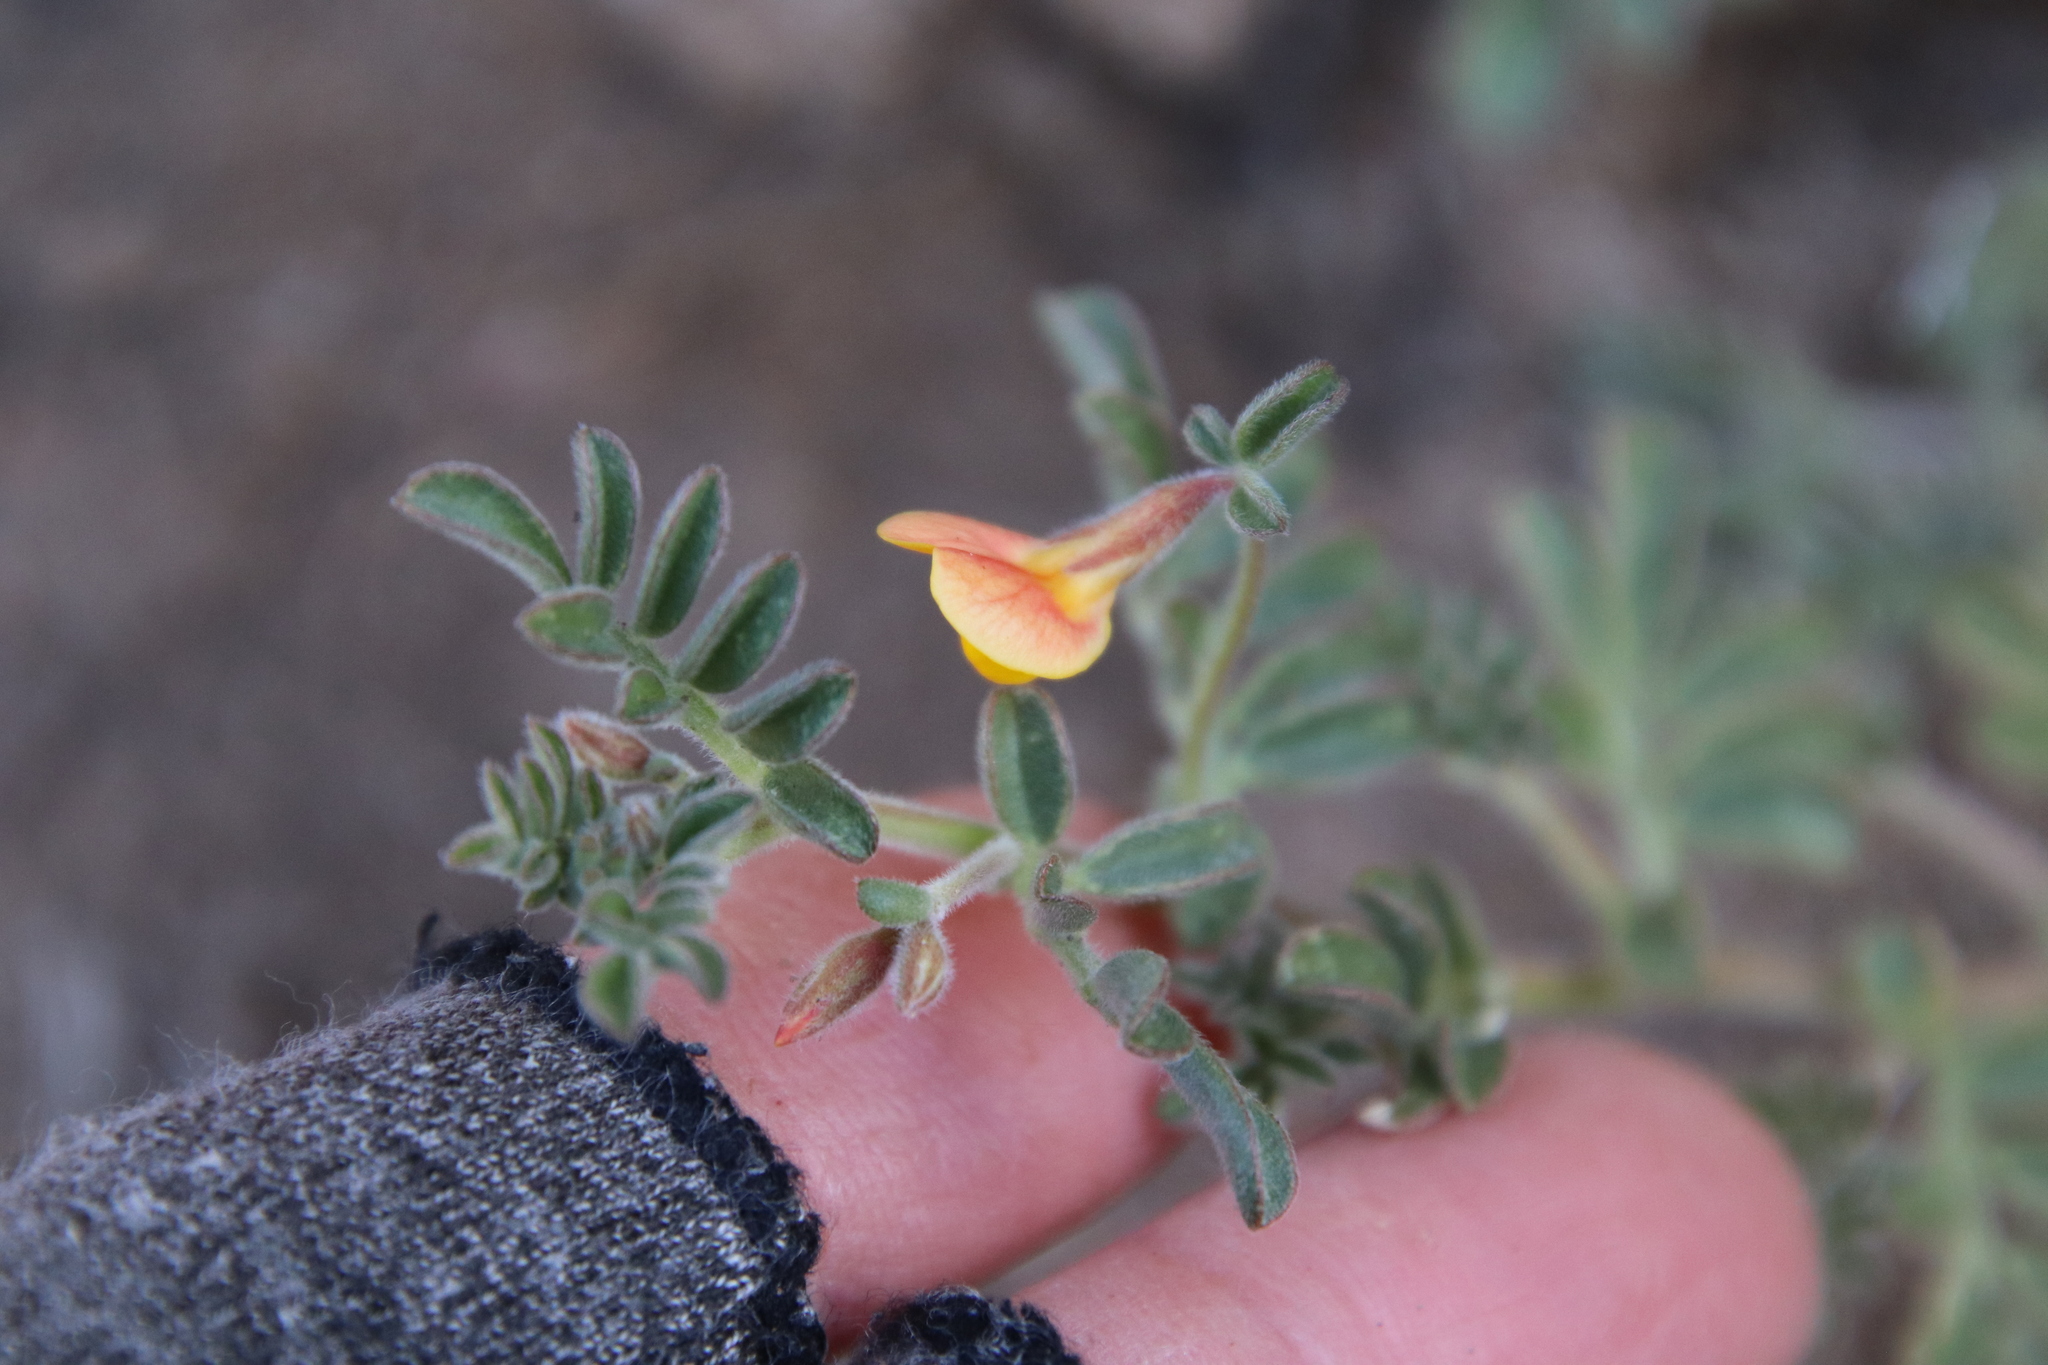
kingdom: Plantae
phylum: Tracheophyta
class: Magnoliopsida
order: Fabales
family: Fabaceae
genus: Acmispon
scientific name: Acmispon strigosus
